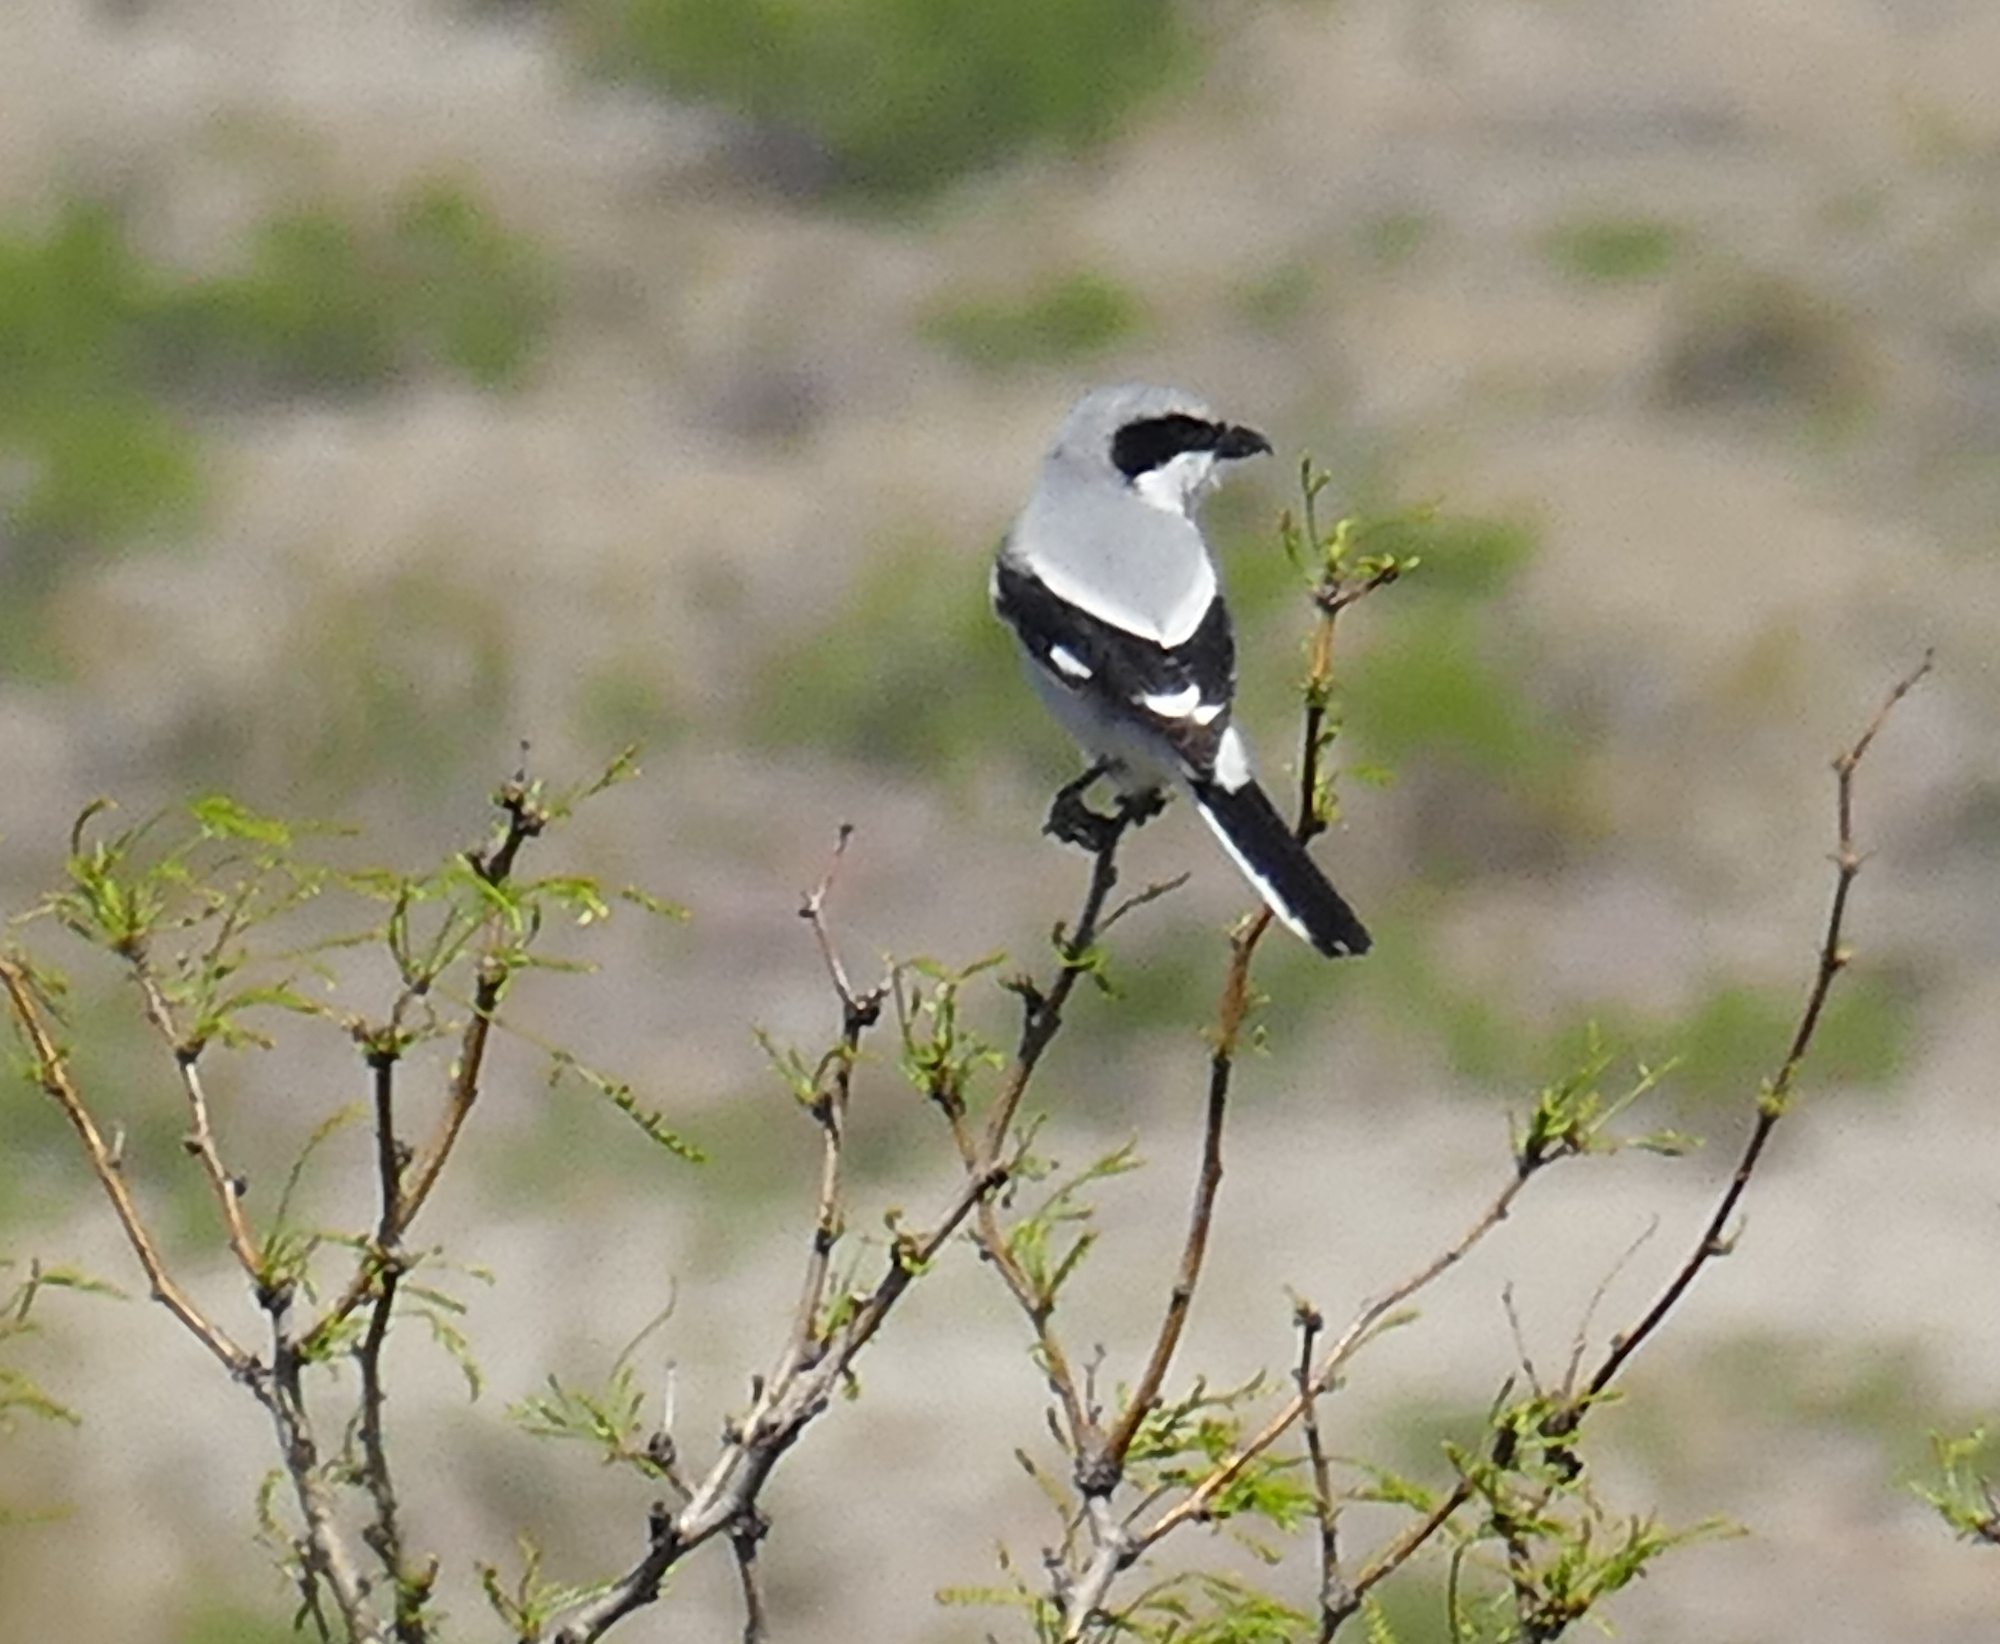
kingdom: Animalia
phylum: Chordata
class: Aves
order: Passeriformes
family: Laniidae
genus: Lanius
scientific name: Lanius ludovicianus
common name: Loggerhead shrike
